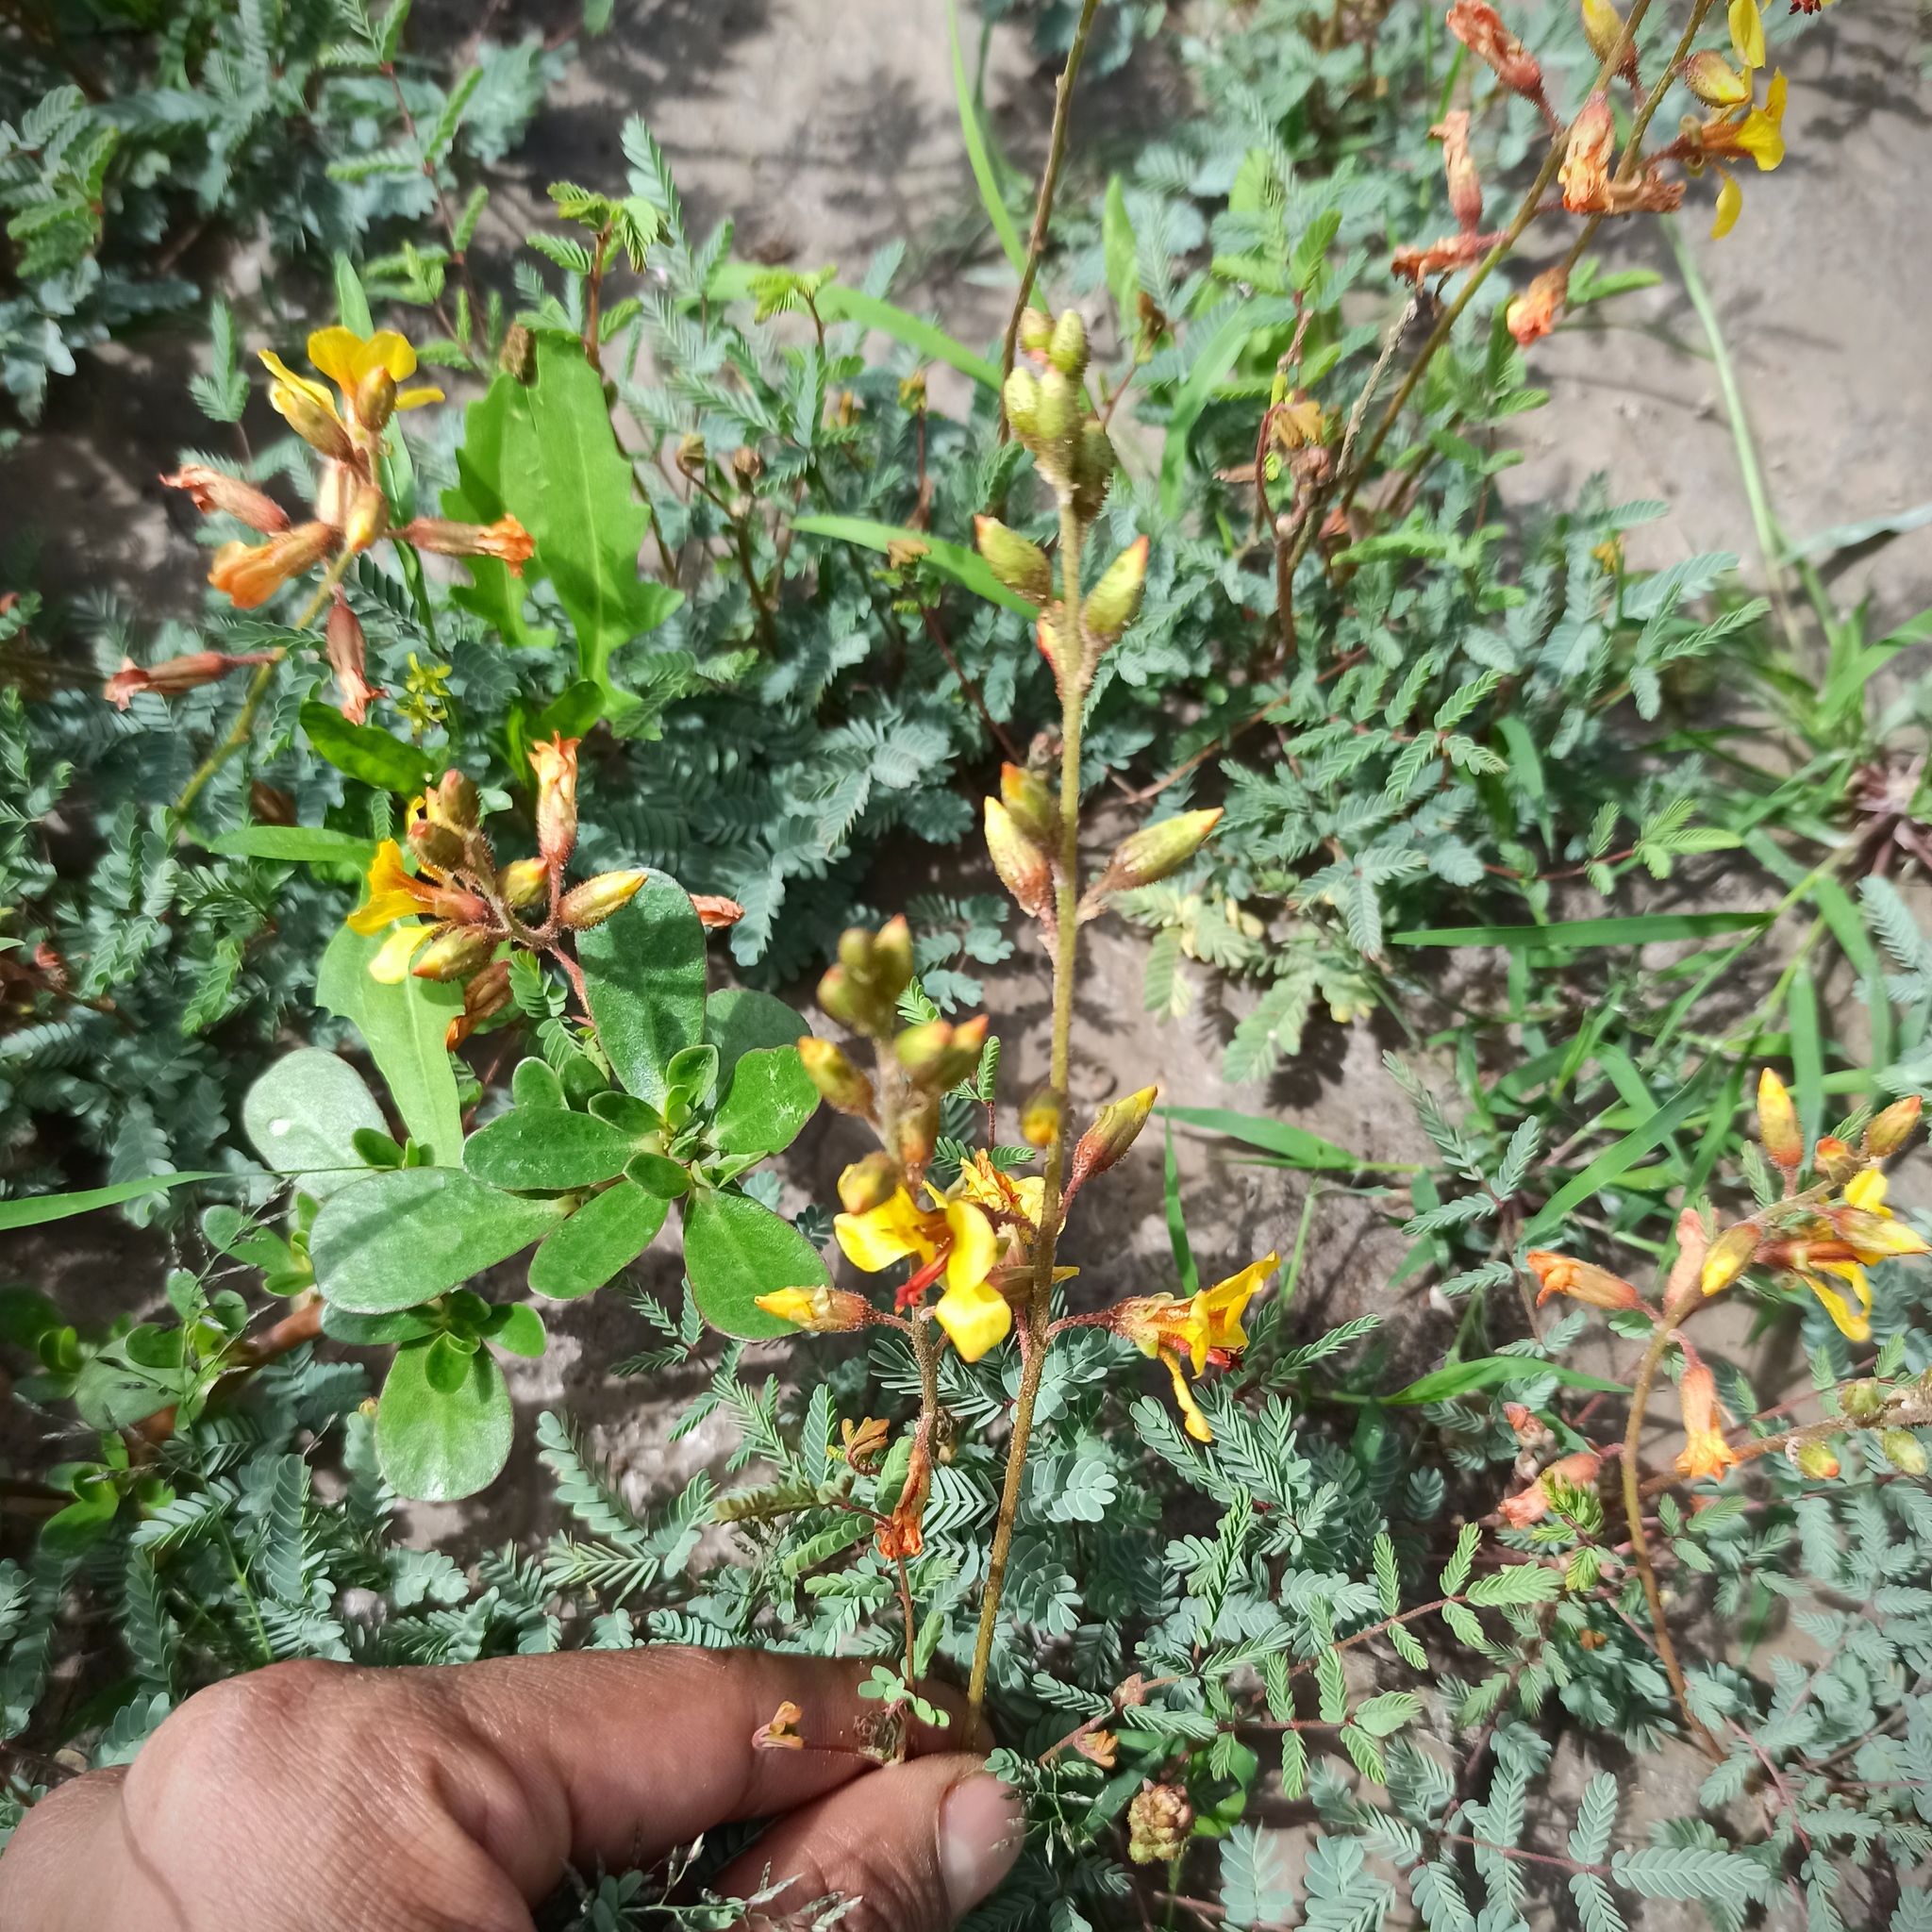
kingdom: Plantae
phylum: Tracheophyta
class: Magnoliopsida
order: Fabales
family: Fabaceae
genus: Hoffmannseggia
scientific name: Hoffmannseggia glauca
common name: Pignut
